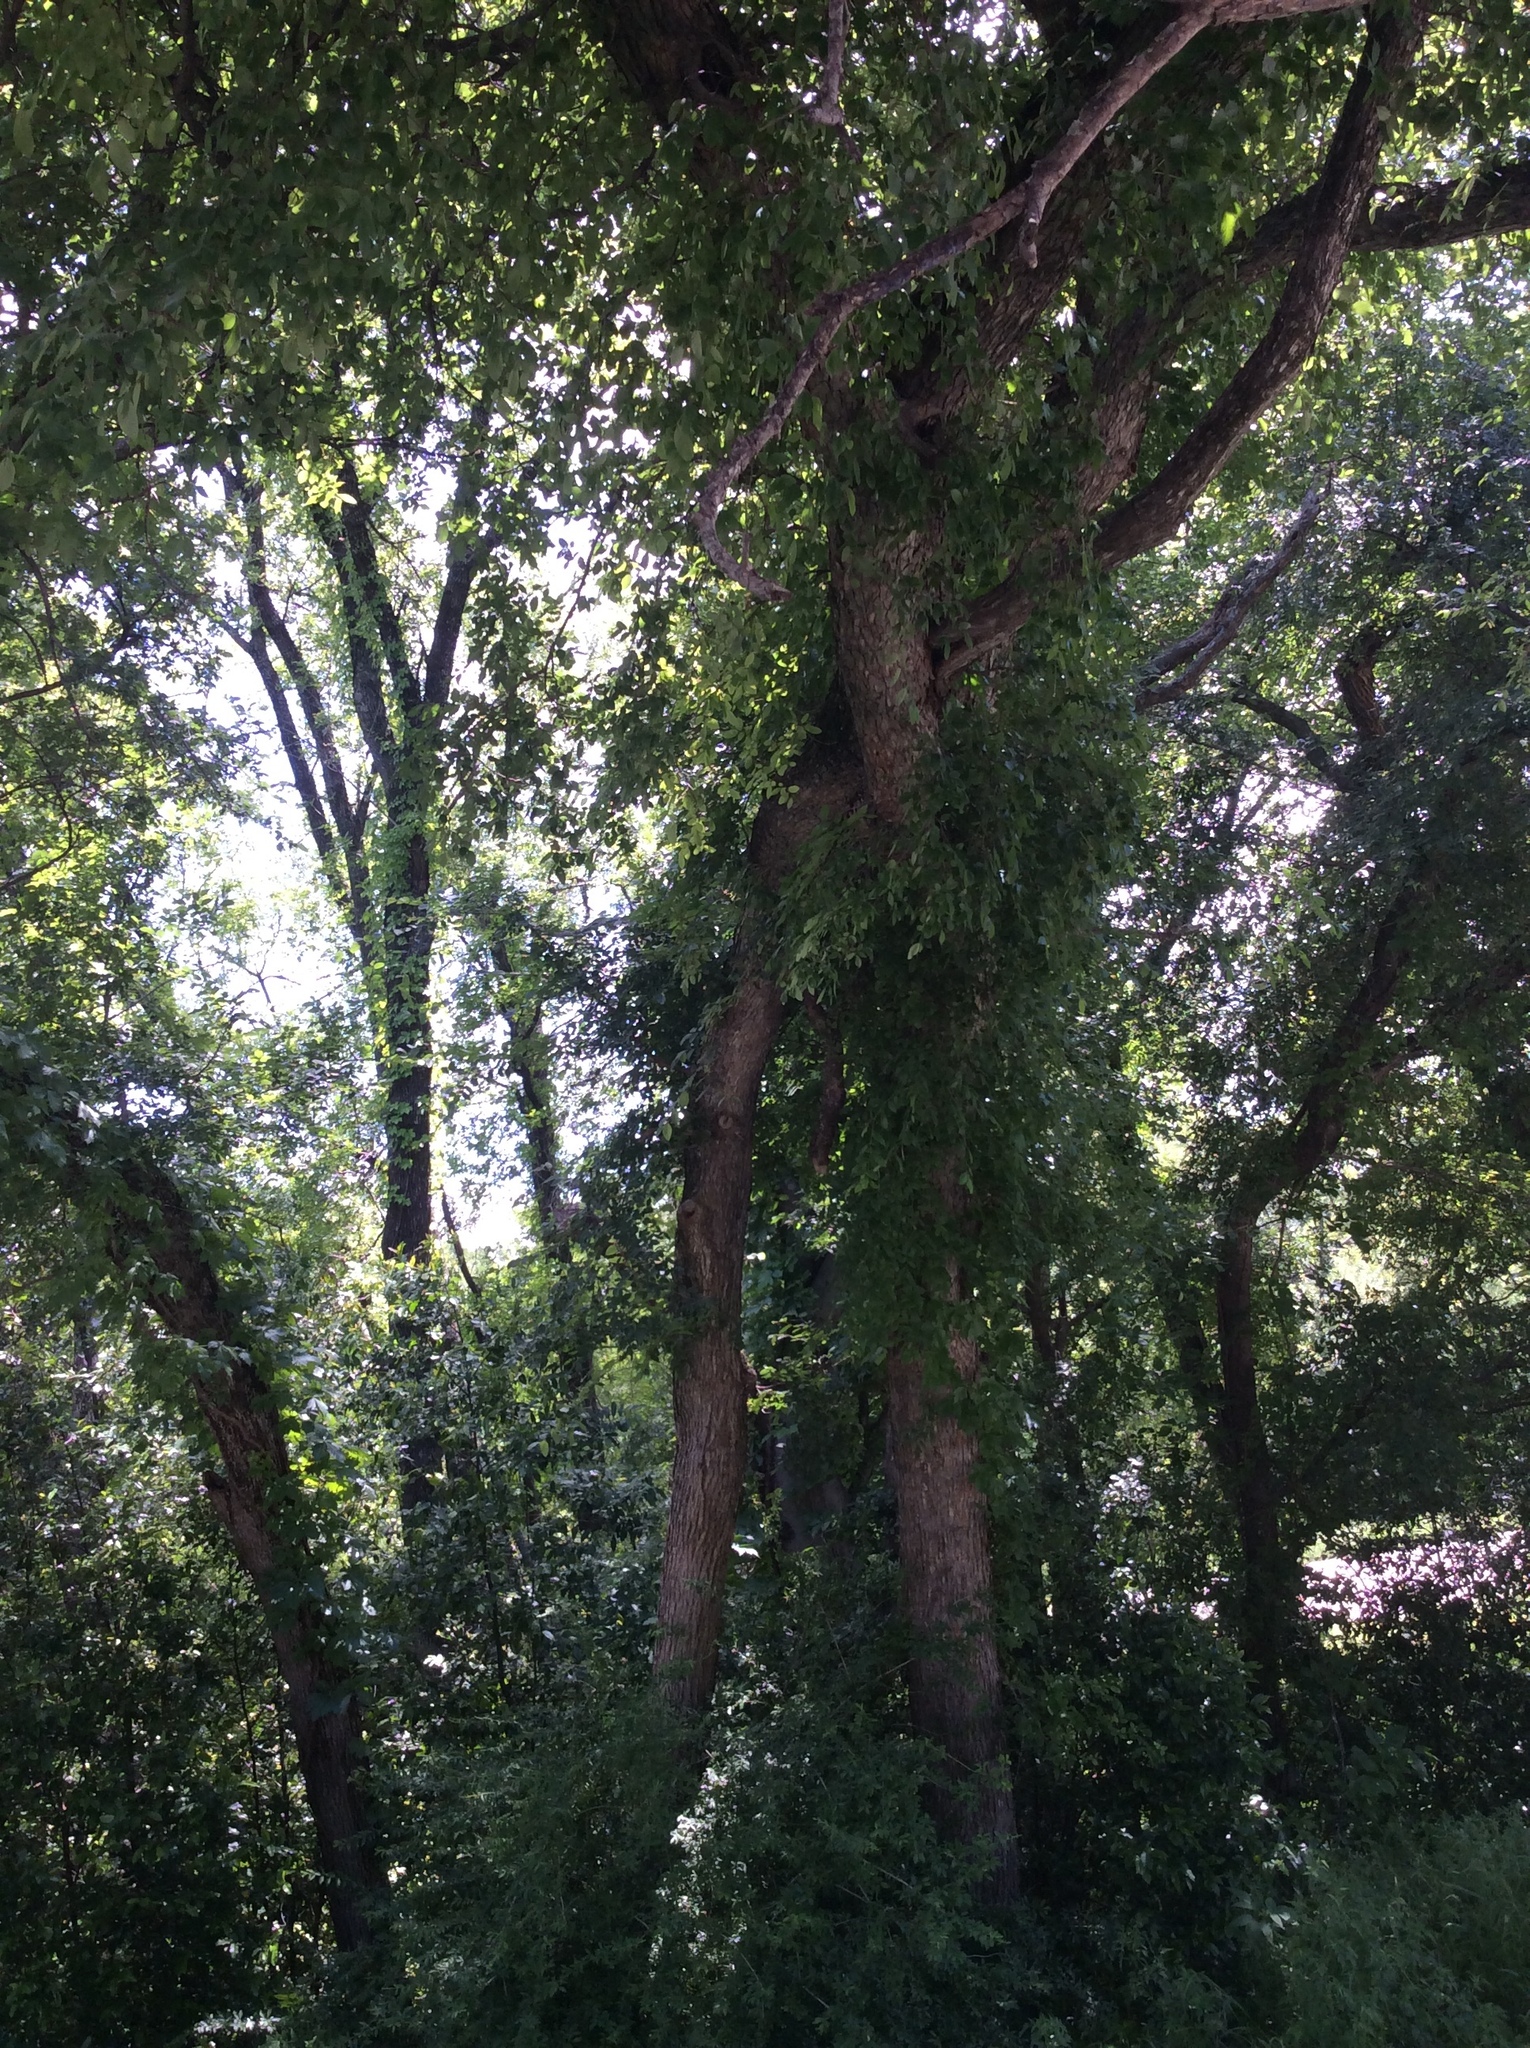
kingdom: Plantae
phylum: Tracheophyta
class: Magnoliopsida
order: Rosales
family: Ulmaceae
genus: Ulmus
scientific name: Ulmus crassifolia
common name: Basket elm
